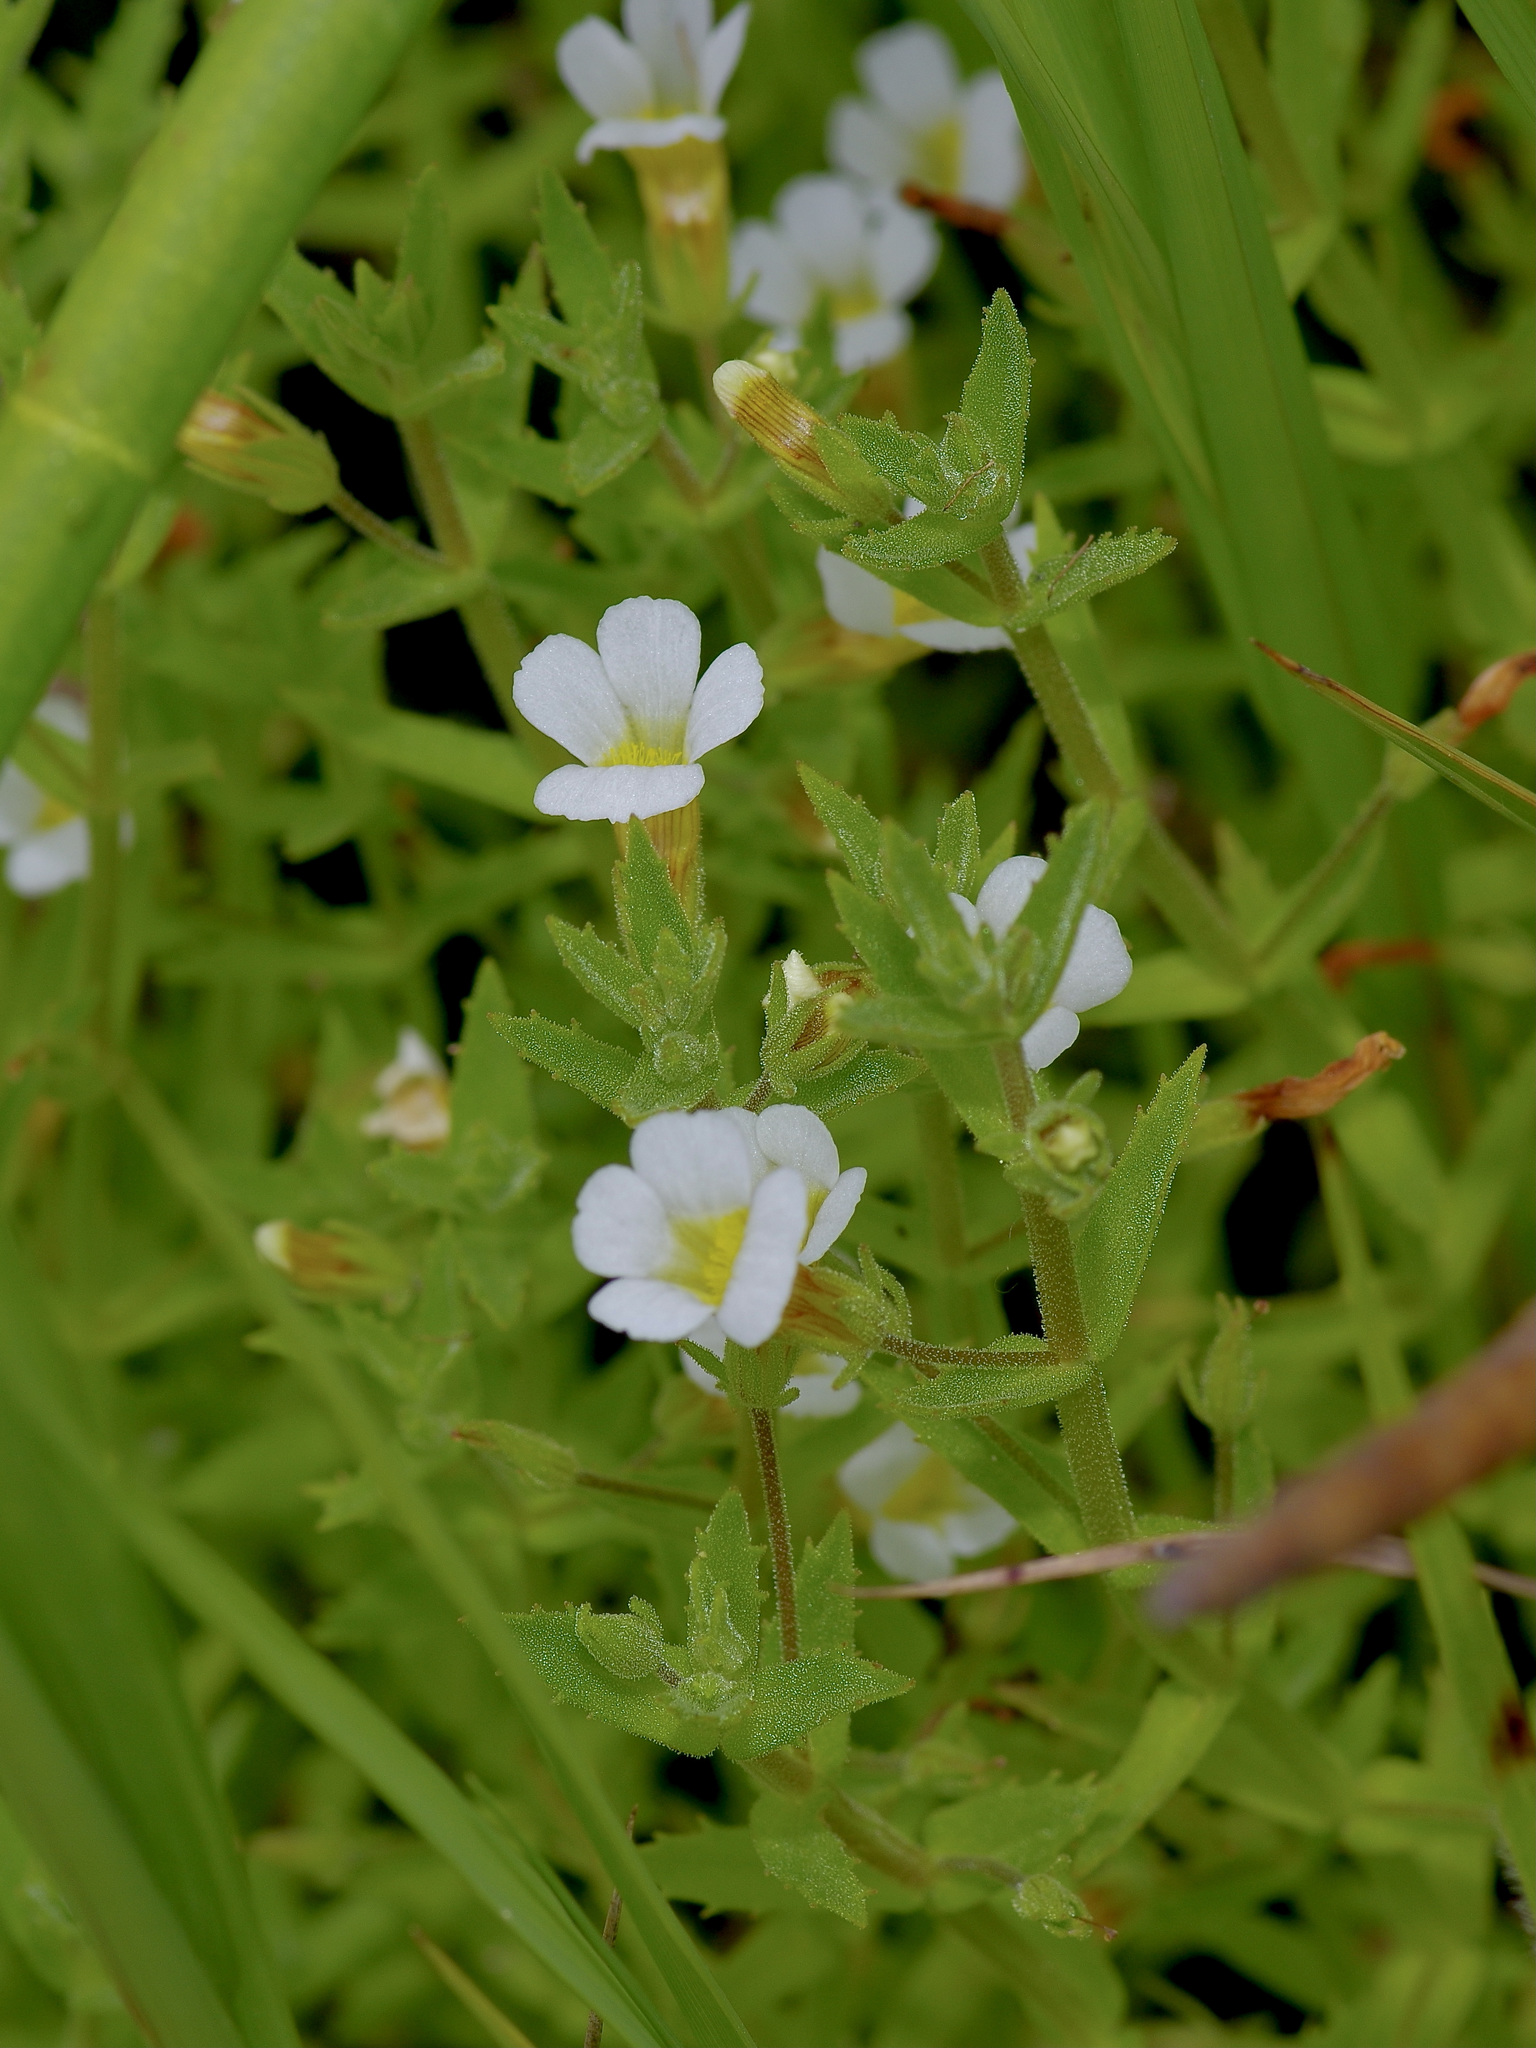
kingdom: Plantae
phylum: Tracheophyta
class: Magnoliopsida
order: Lamiales
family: Plantaginaceae
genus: Gratiola
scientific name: Gratiola brevifolia
